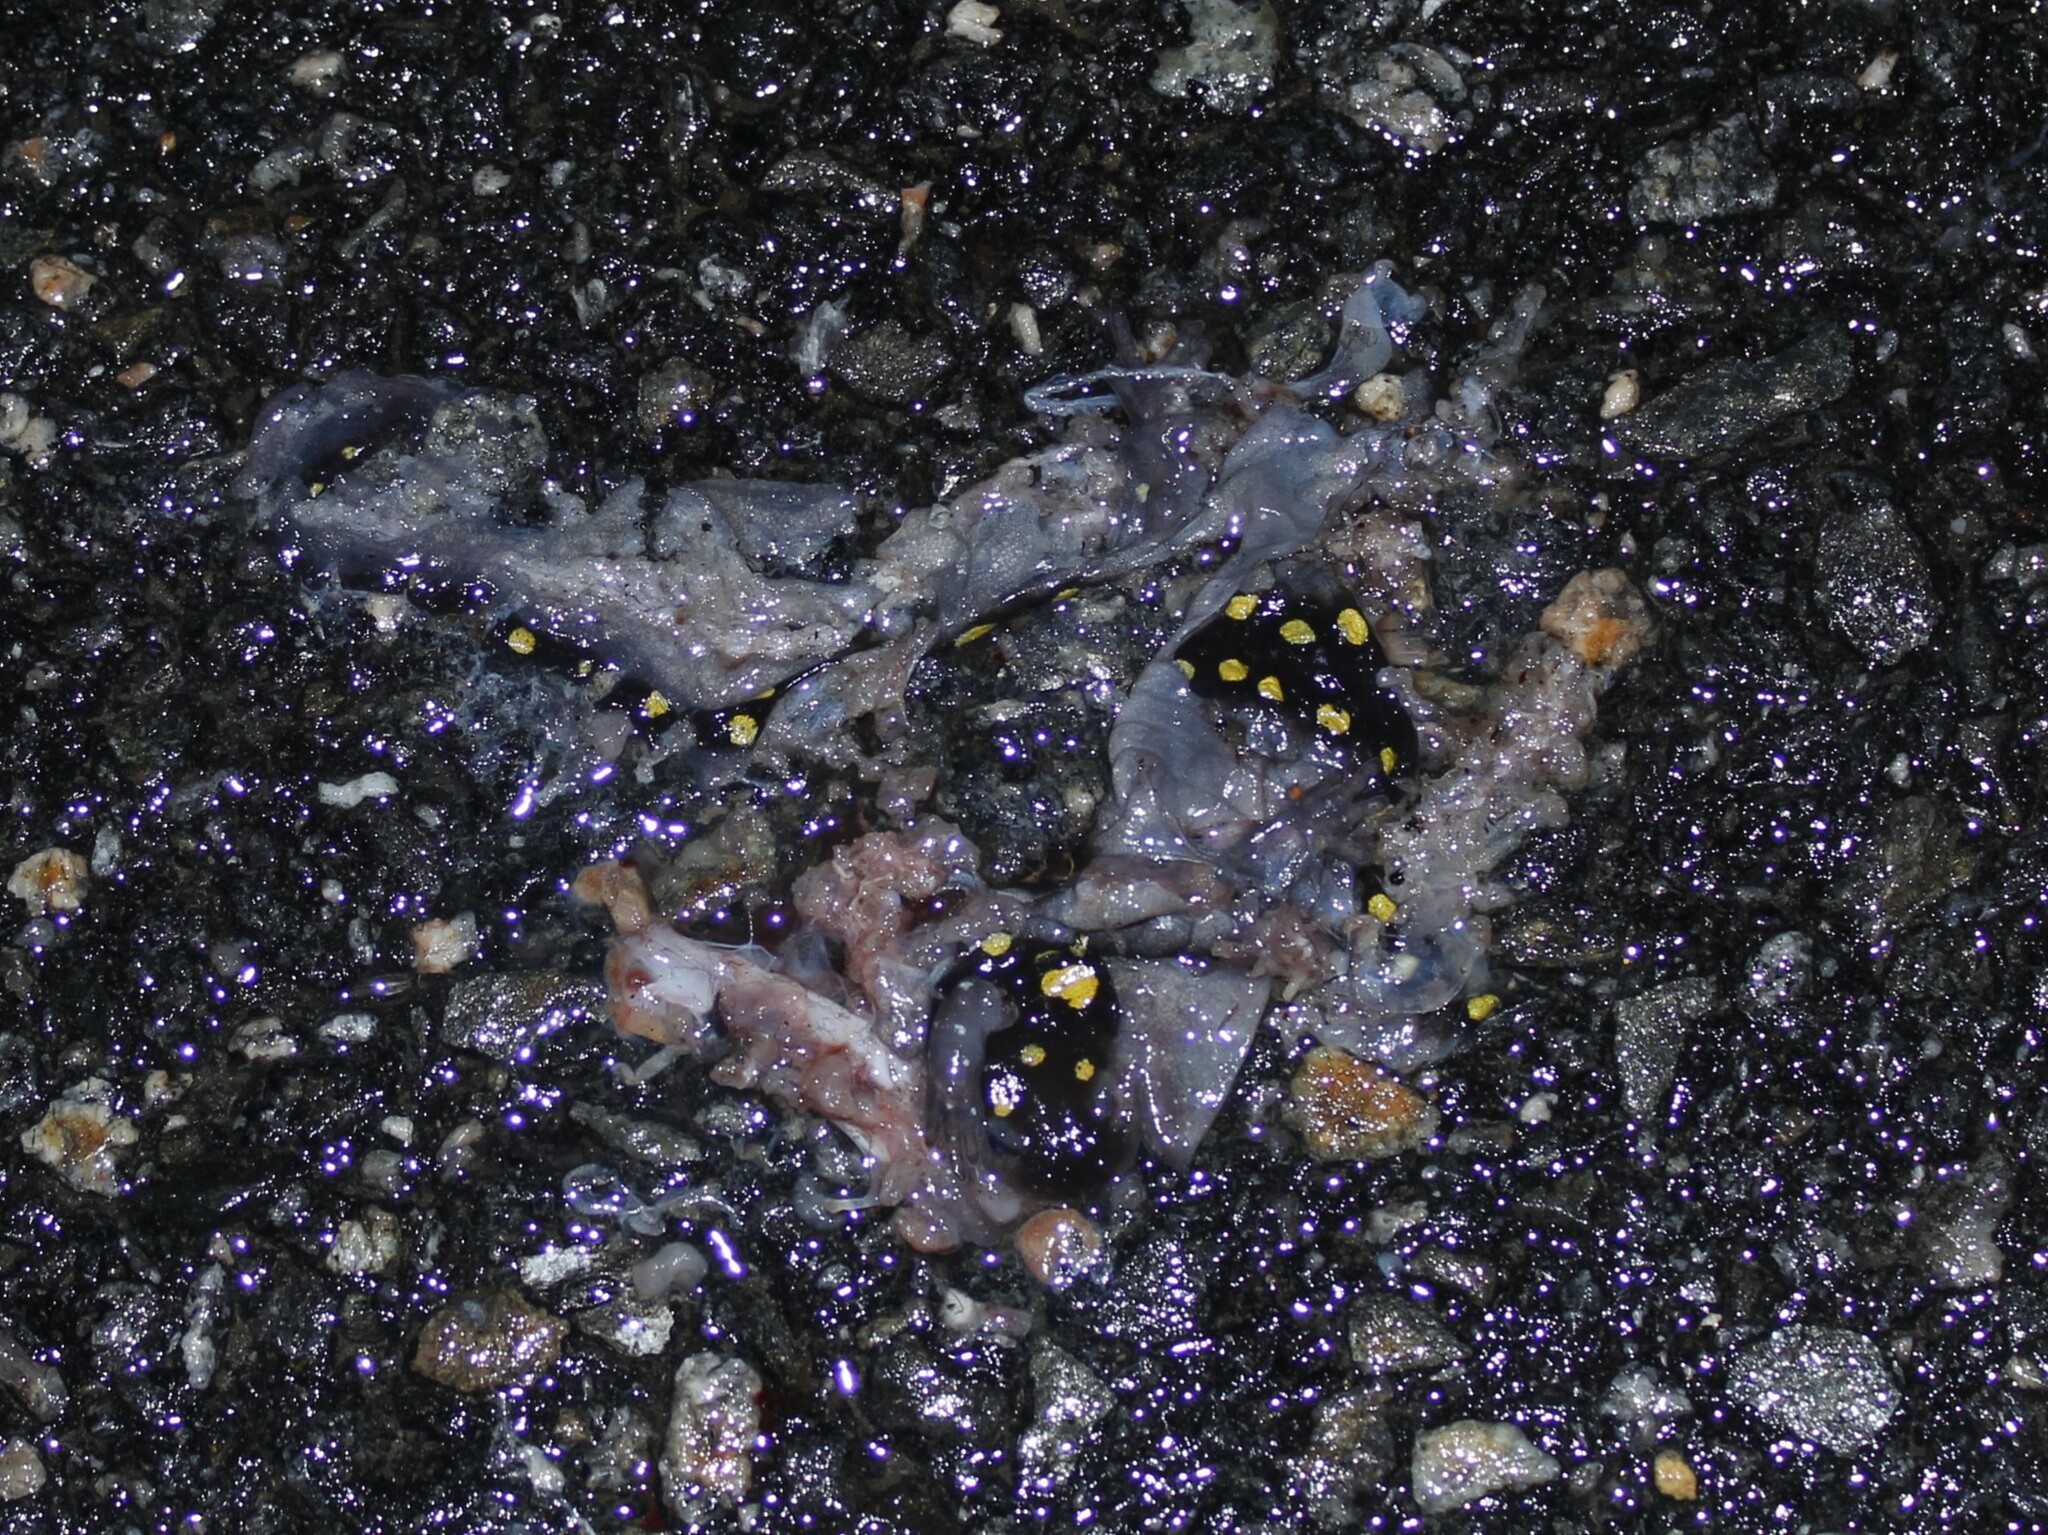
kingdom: Animalia
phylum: Chordata
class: Amphibia
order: Caudata
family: Ambystomatidae
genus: Ambystoma
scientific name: Ambystoma maculatum
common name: Spotted salamander
